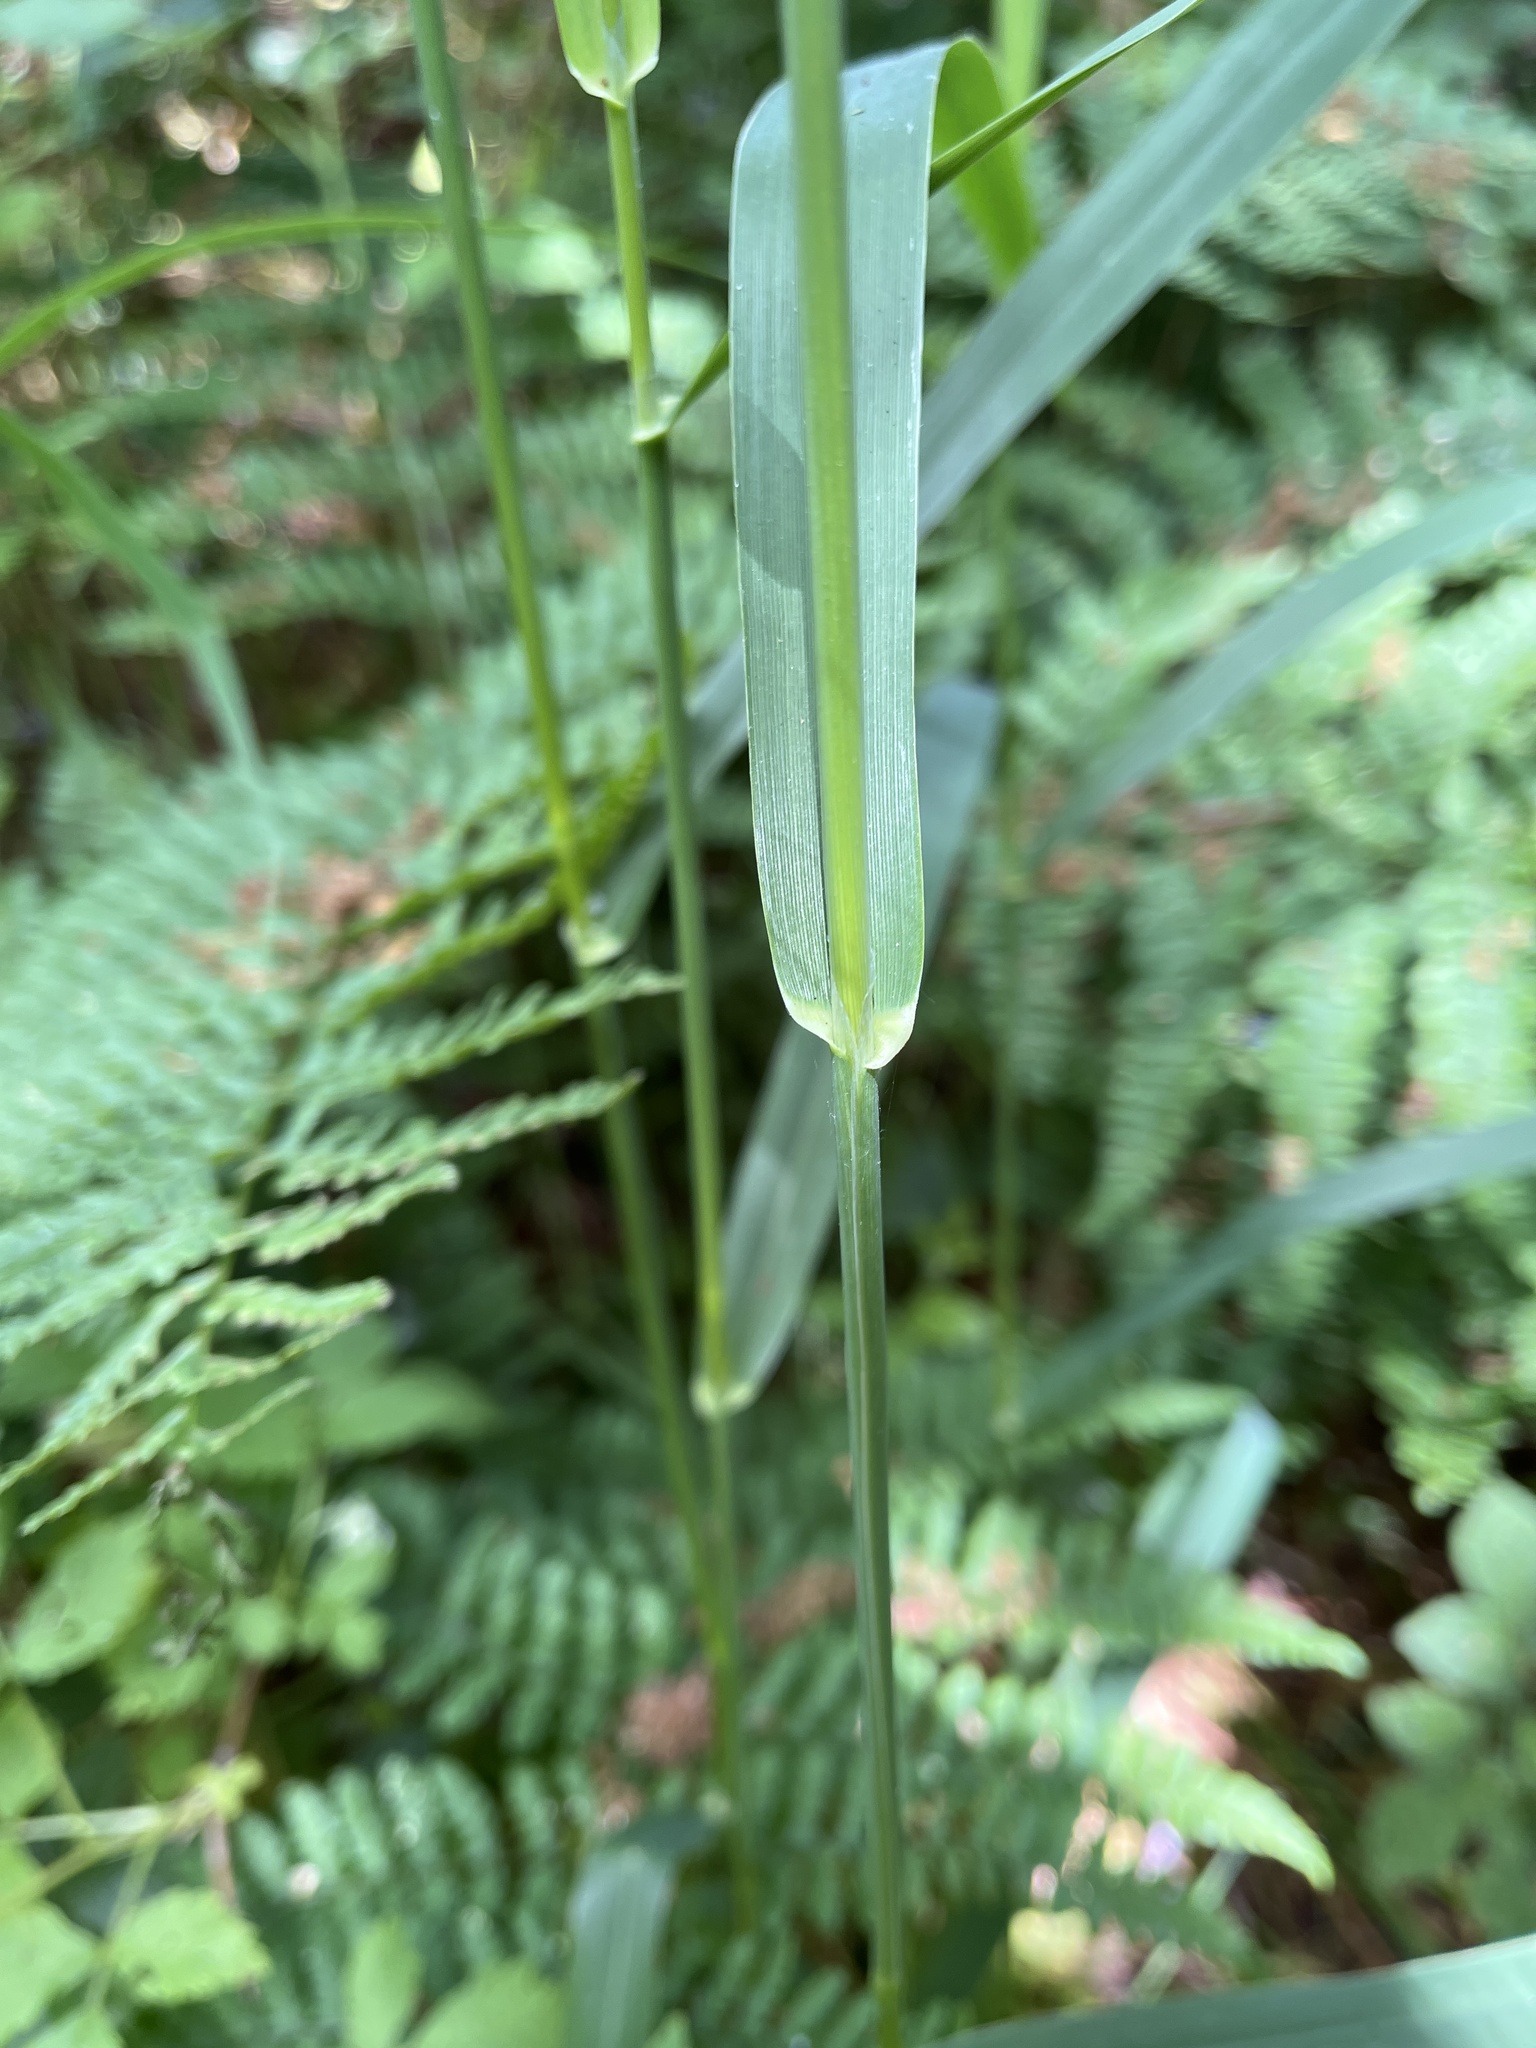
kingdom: Plantae
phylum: Tracheophyta
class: Liliopsida
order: Poales
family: Poaceae
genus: Milium
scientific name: Milium effusum
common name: Wood millet
